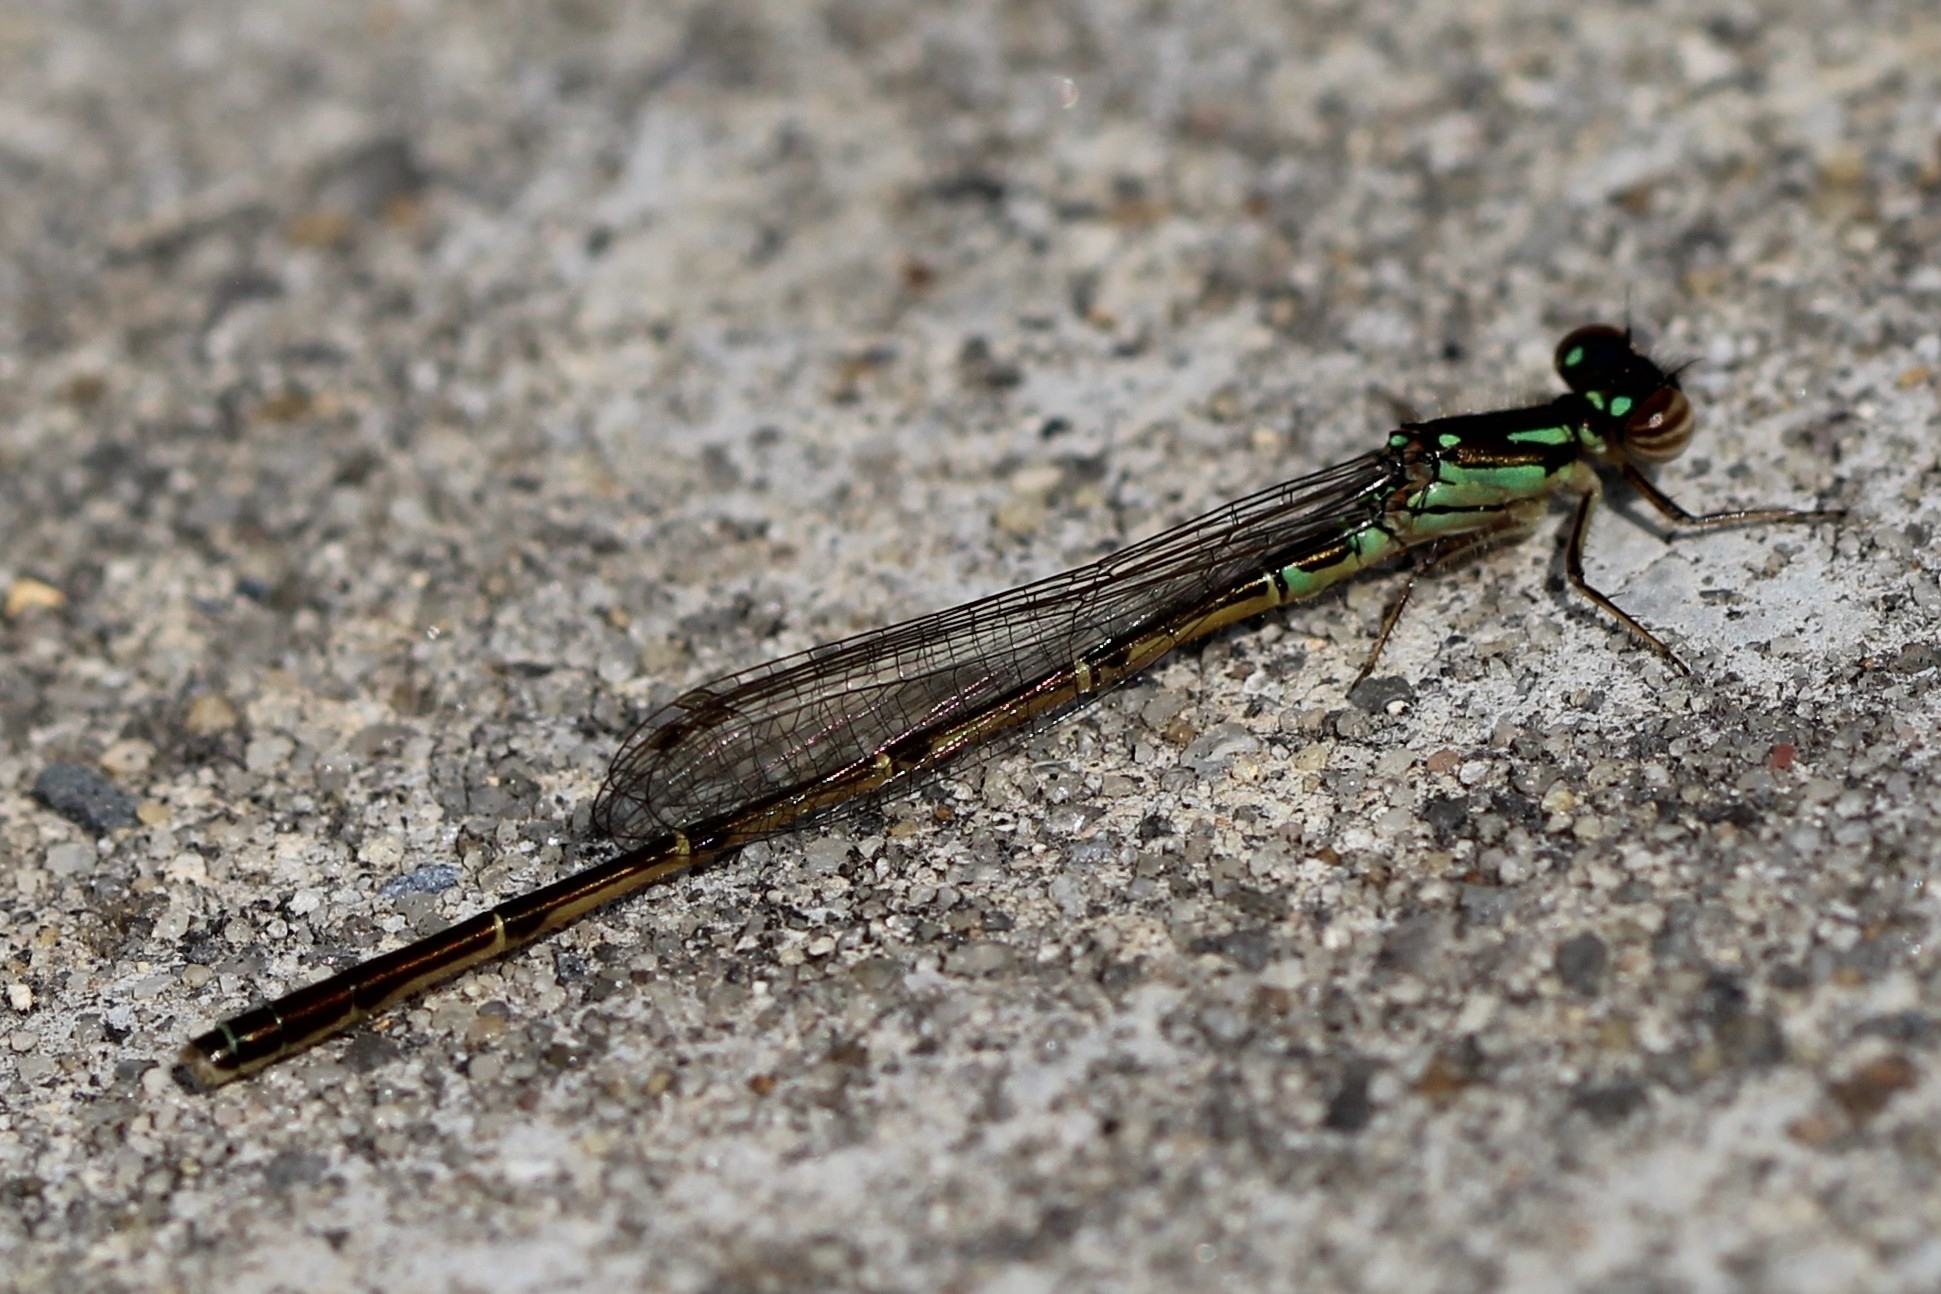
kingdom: Animalia
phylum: Arthropoda
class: Insecta
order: Odonata
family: Coenagrionidae
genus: Ischnura
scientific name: Ischnura posita
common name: Fragile forktail
